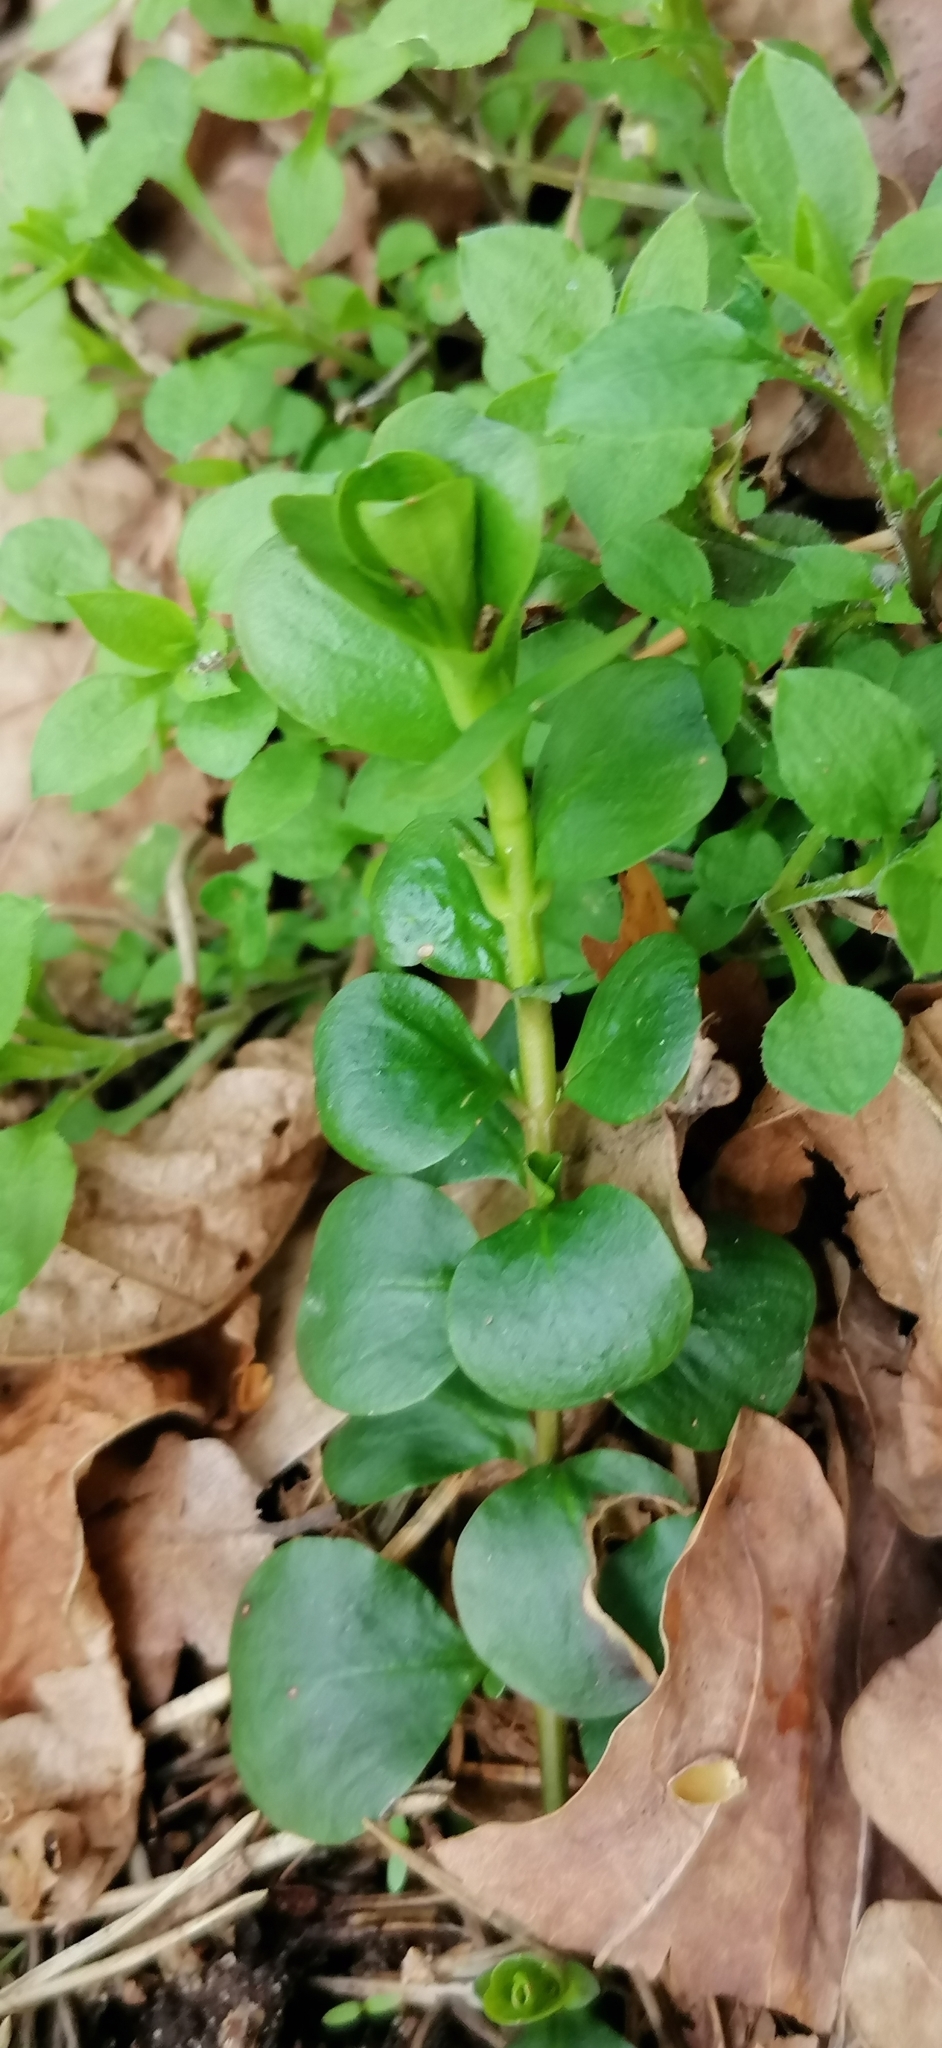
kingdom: Plantae
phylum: Tracheophyta
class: Magnoliopsida
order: Ericales
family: Primulaceae
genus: Lysimachia
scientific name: Lysimachia nummularia
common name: Moneywort
